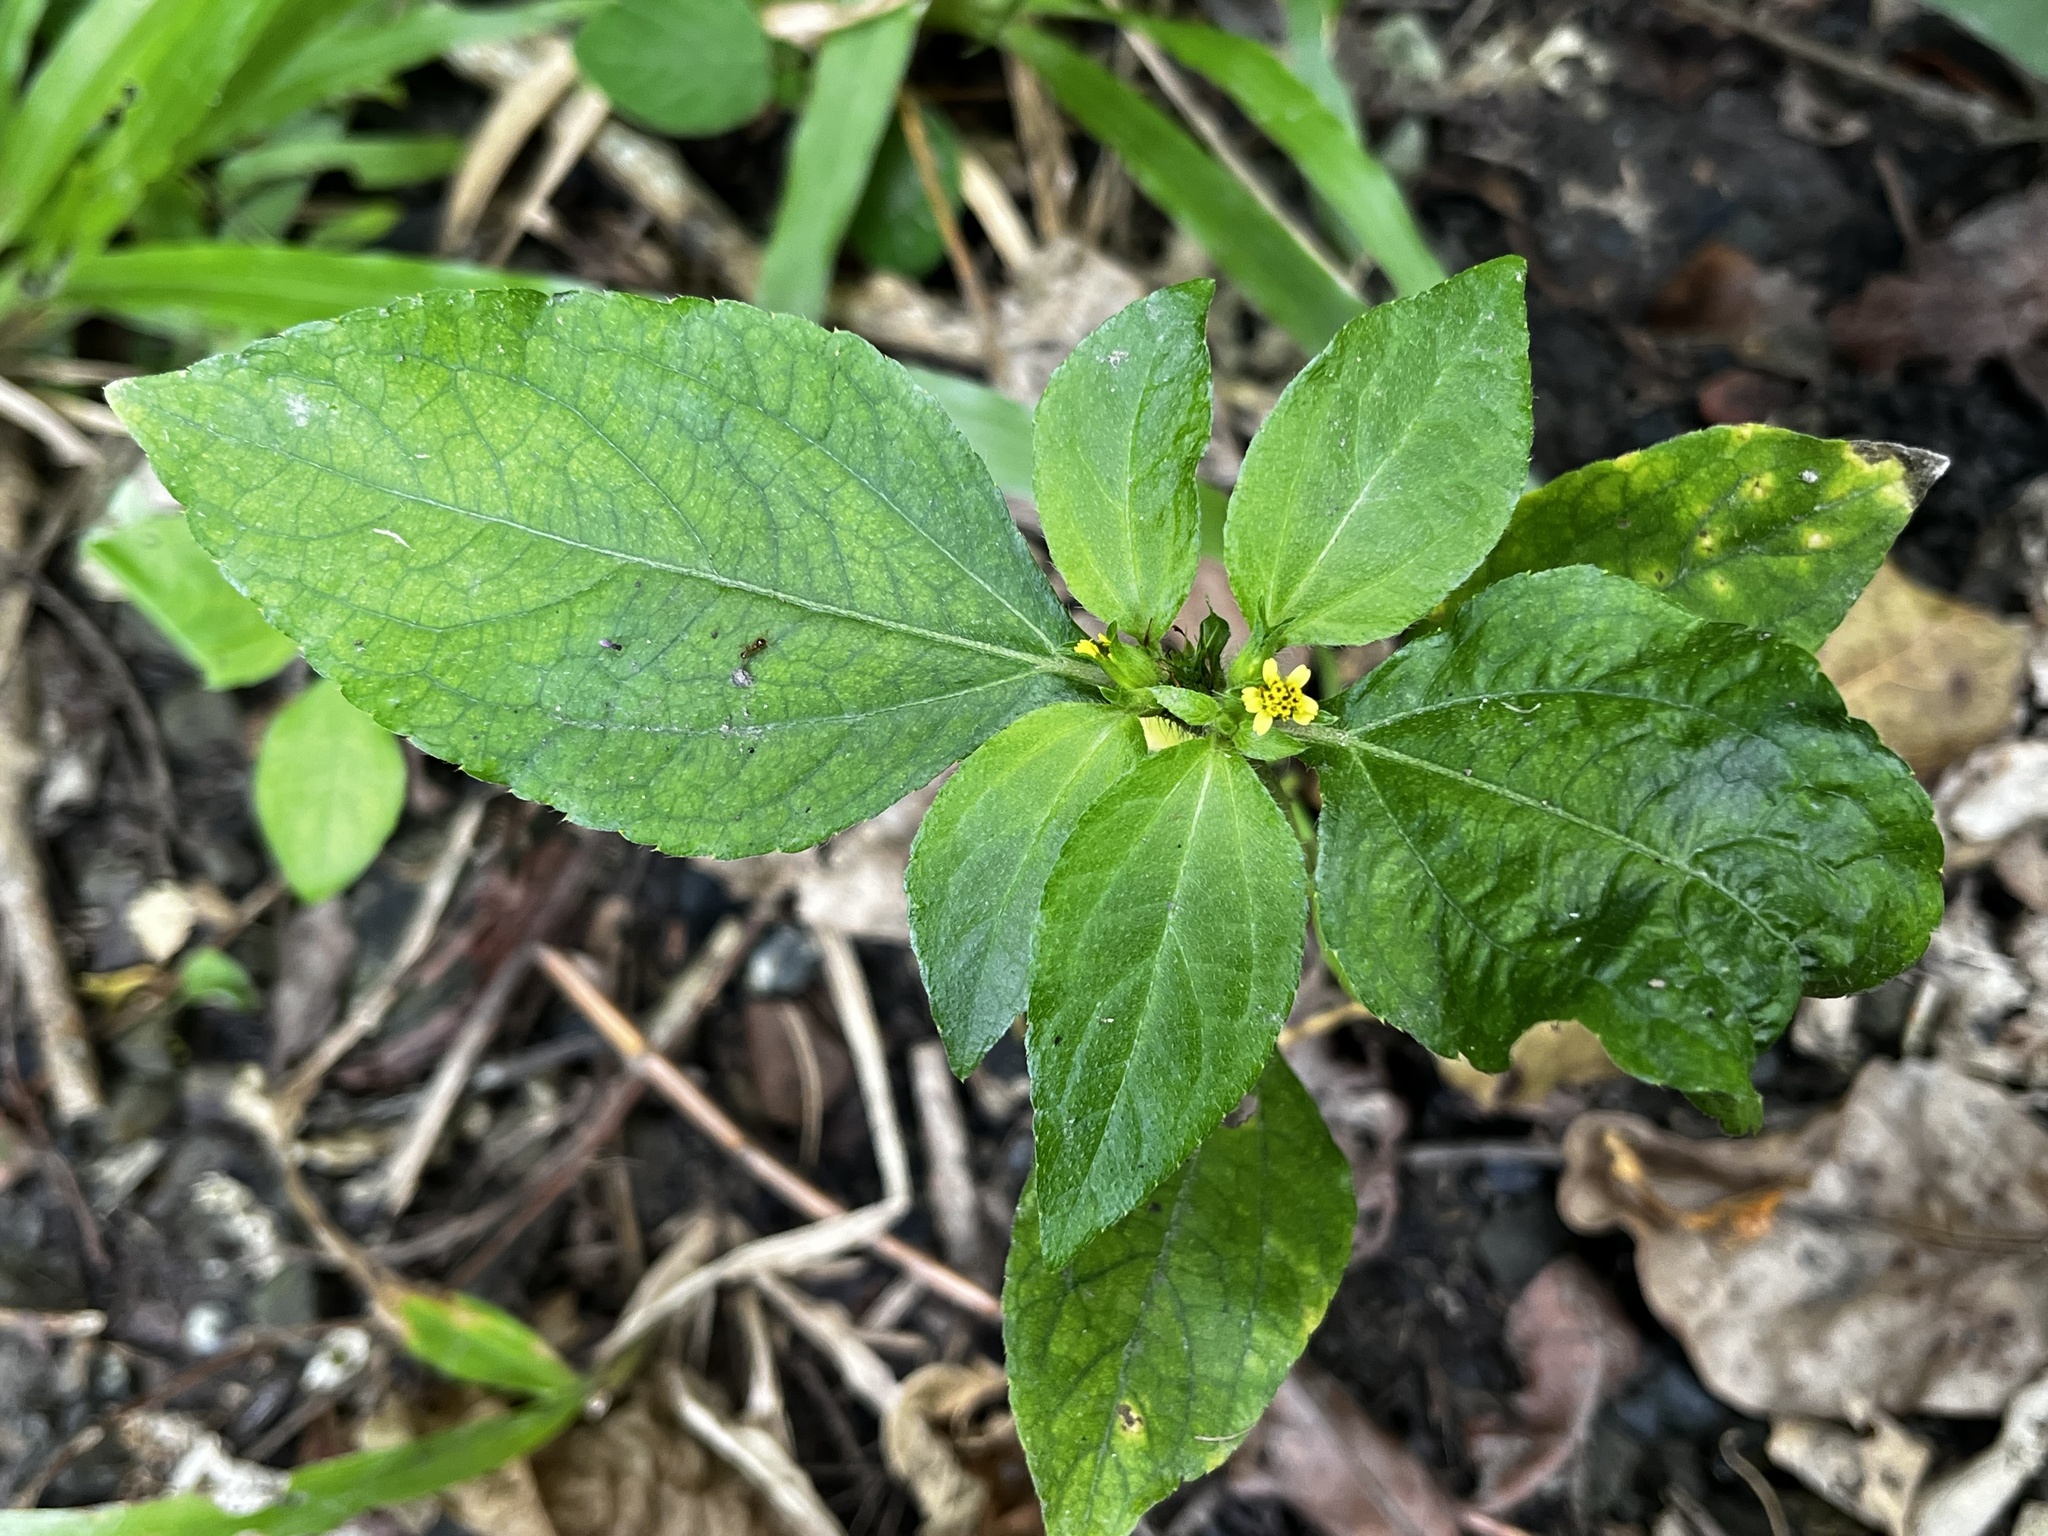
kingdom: Plantae
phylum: Tracheophyta
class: Magnoliopsida
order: Asterales
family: Asteraceae
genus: Synedrella
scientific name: Synedrella nodiflora
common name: Nodeweed
